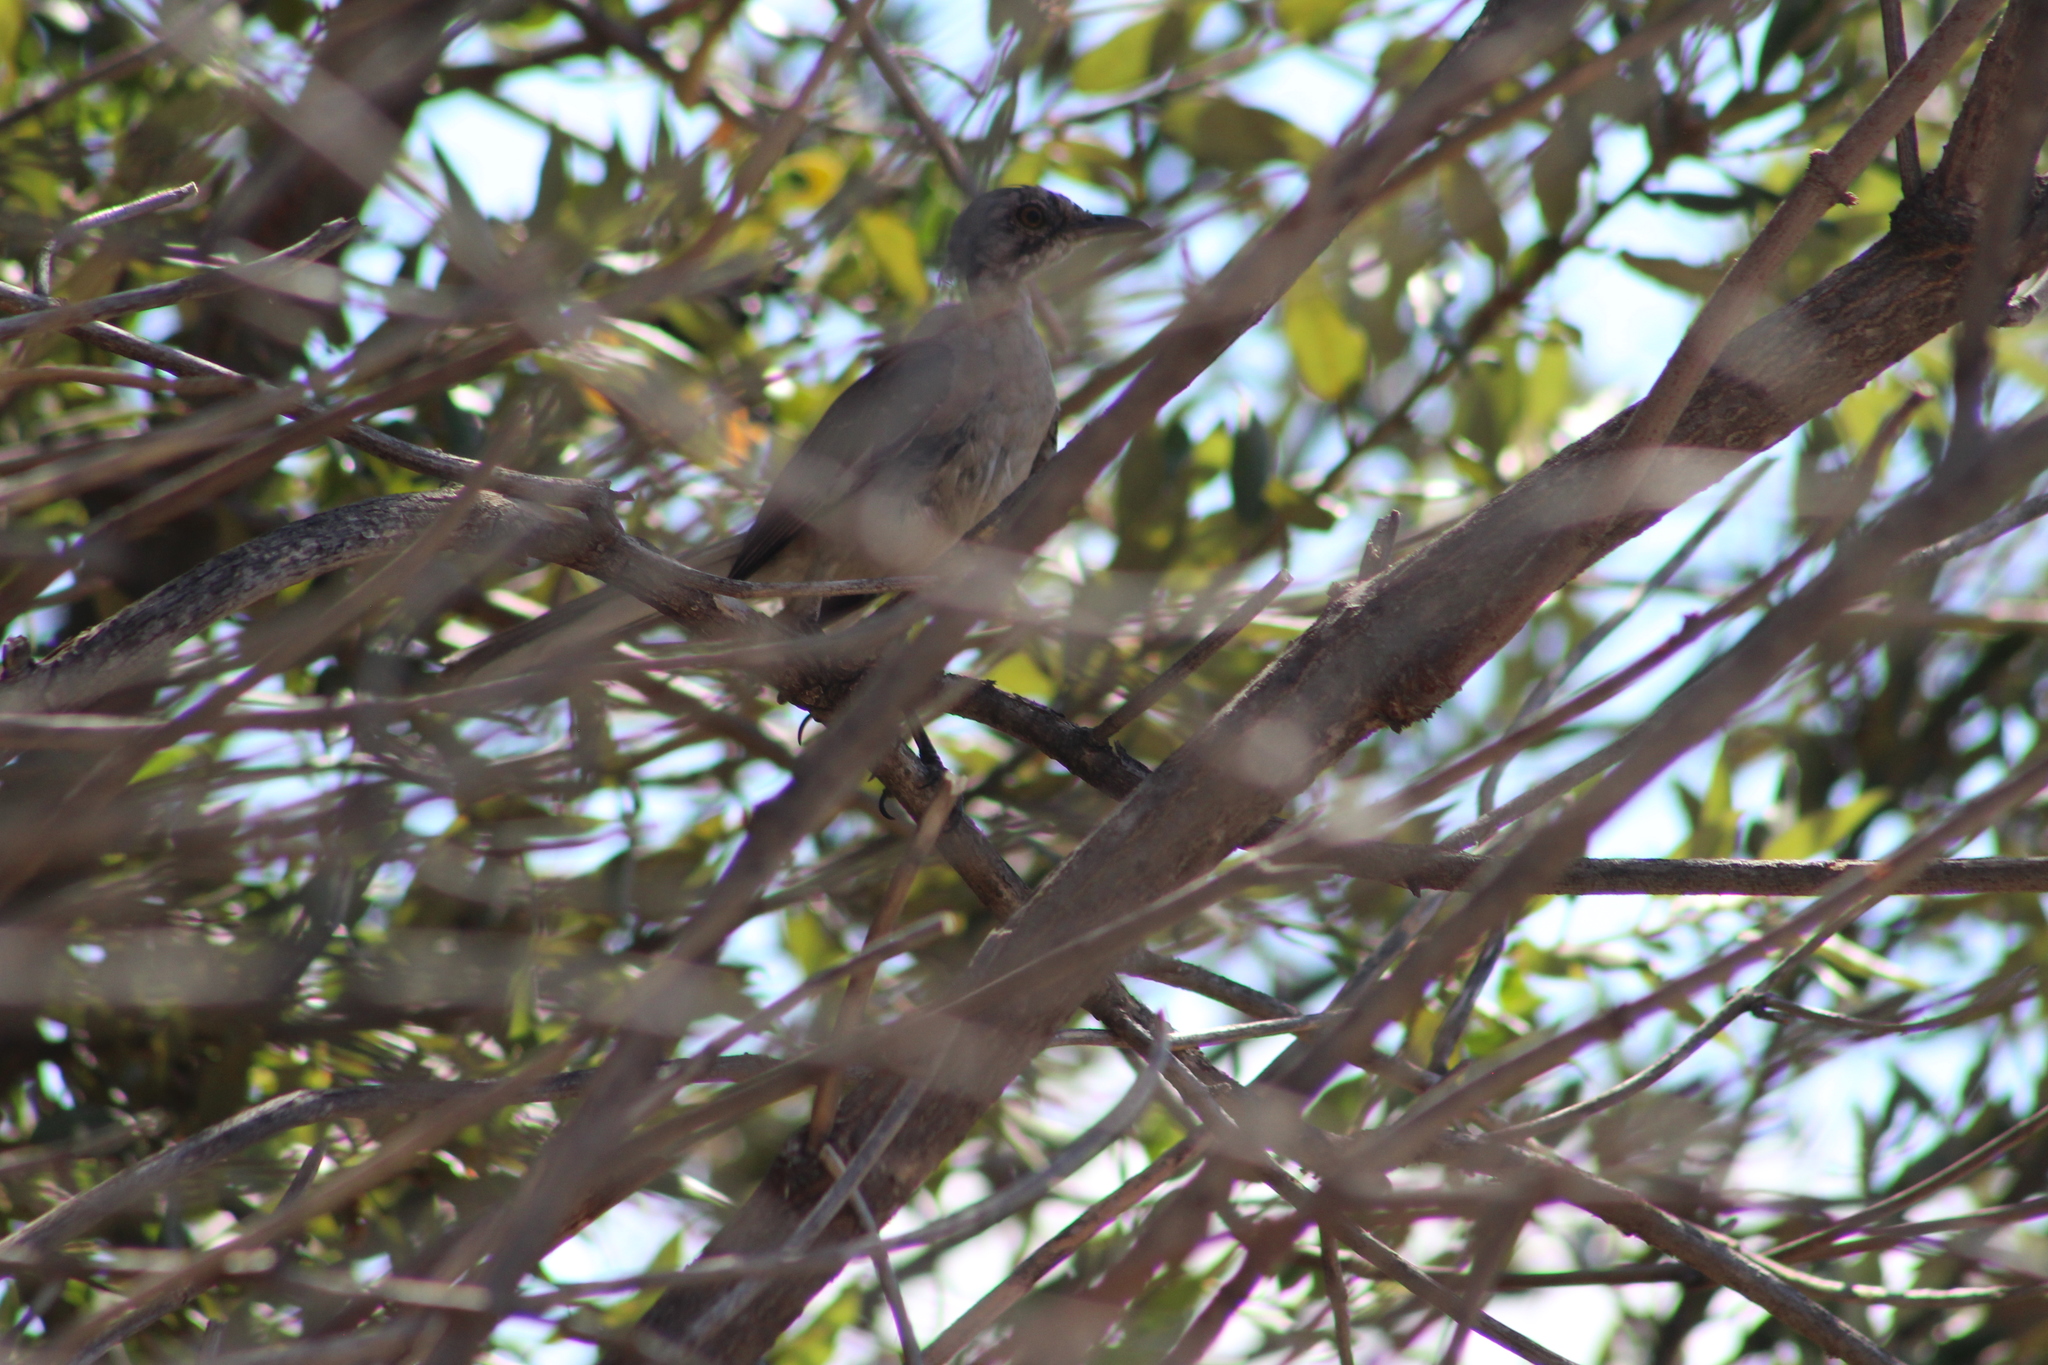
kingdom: Animalia
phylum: Chordata
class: Aves
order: Passeriformes
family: Mimidae
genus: Mimus
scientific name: Mimus polyglottos
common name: Northern mockingbird
